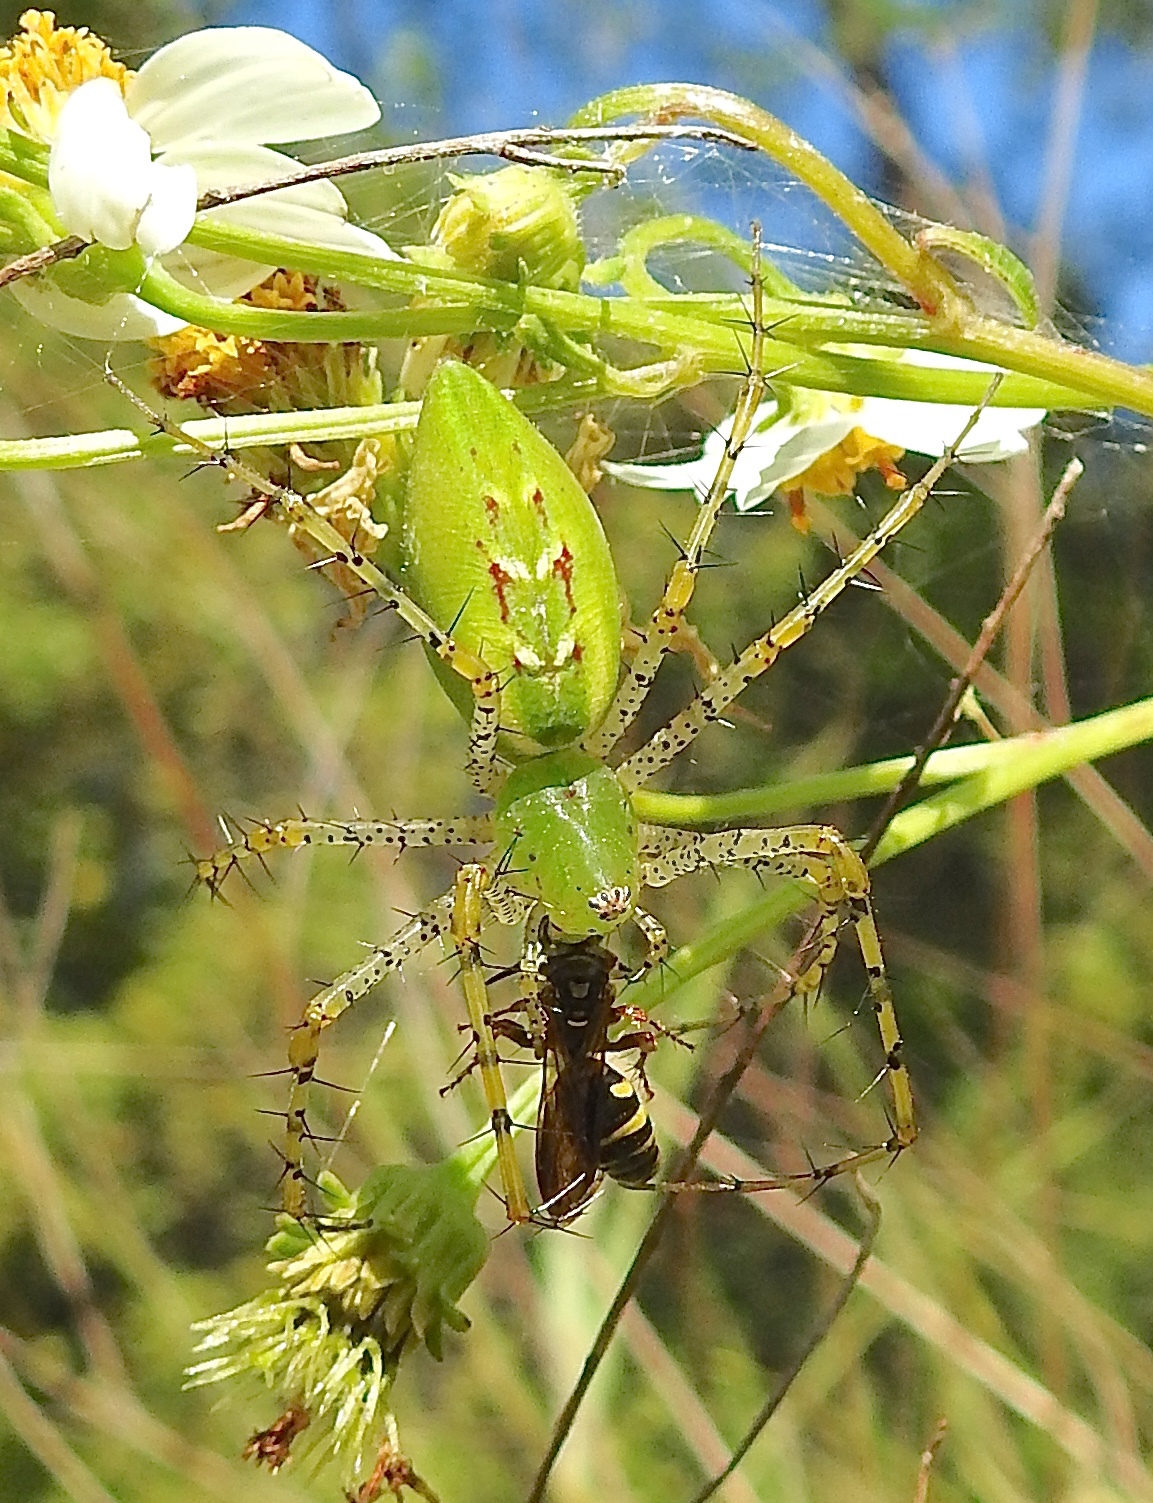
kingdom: Animalia
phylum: Arthropoda
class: Arachnida
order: Araneae
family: Oxyopidae
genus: Peucetia
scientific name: Peucetia viridans
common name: Lynx spiders
